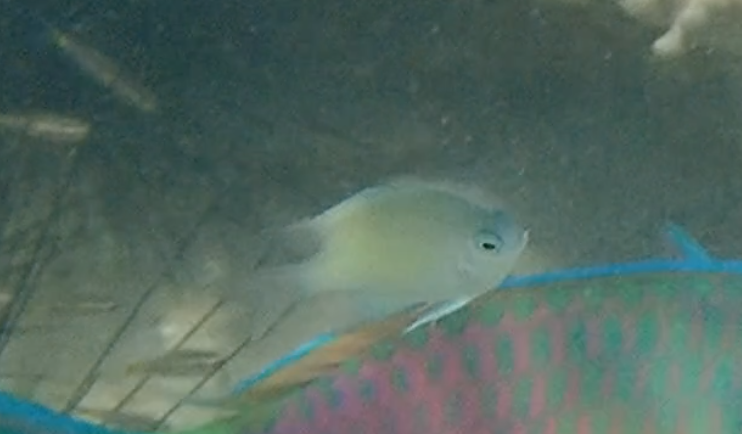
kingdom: Animalia
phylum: Chordata
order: Perciformes
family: Pomacentridae
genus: Amblyglyphidodon
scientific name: Amblyglyphidodon batunaorum
